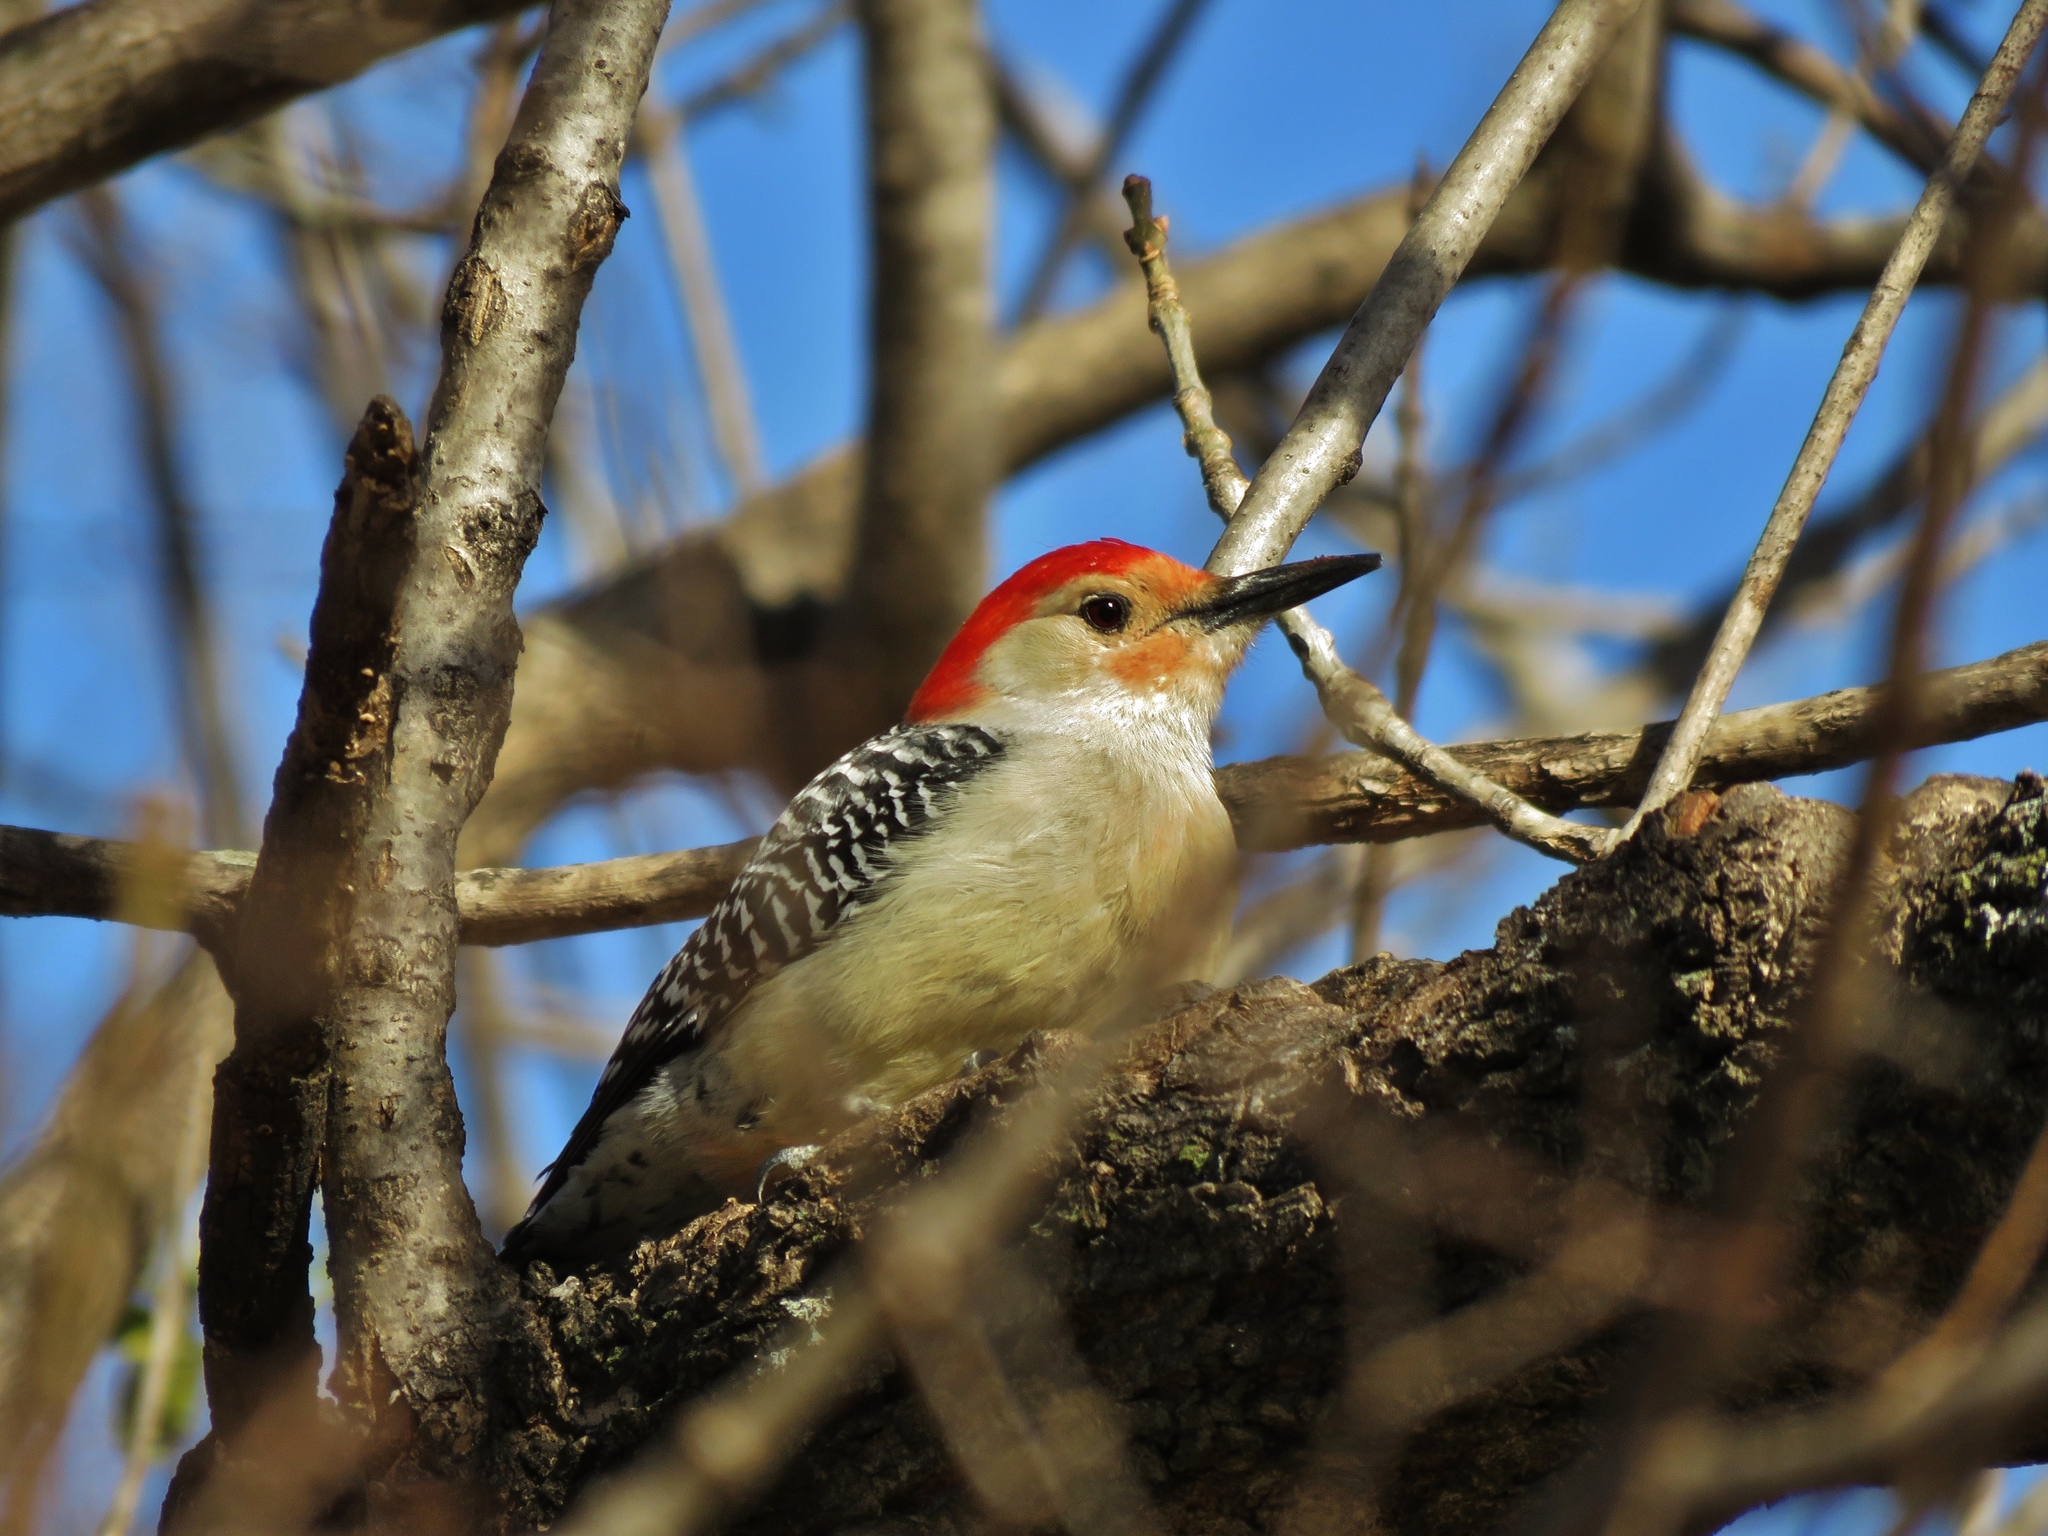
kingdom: Animalia
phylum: Chordata
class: Aves
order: Piciformes
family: Picidae
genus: Melanerpes
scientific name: Melanerpes carolinus
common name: Red-bellied woodpecker
